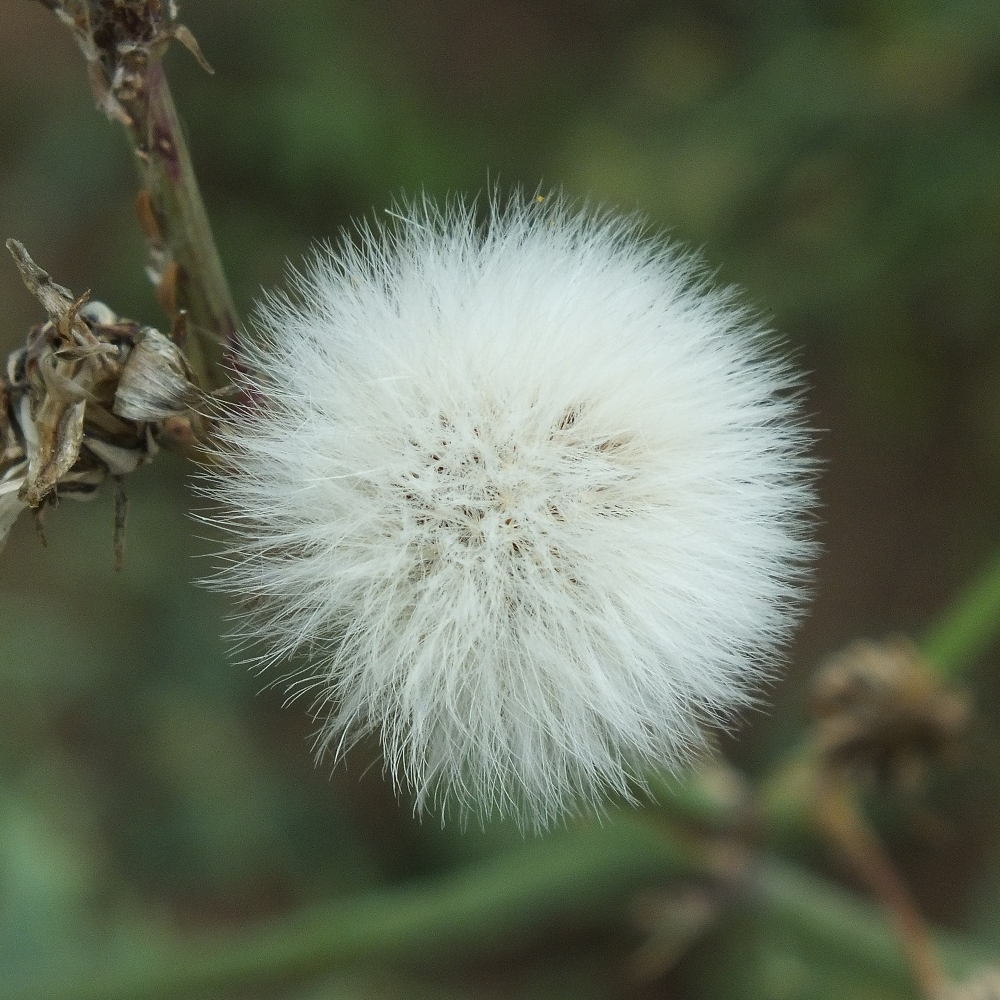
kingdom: Plantae
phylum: Tracheophyta
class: Magnoliopsida
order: Asterales
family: Asteraceae
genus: Sonchus
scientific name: Sonchus oleraceus
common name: Common sowthistle
